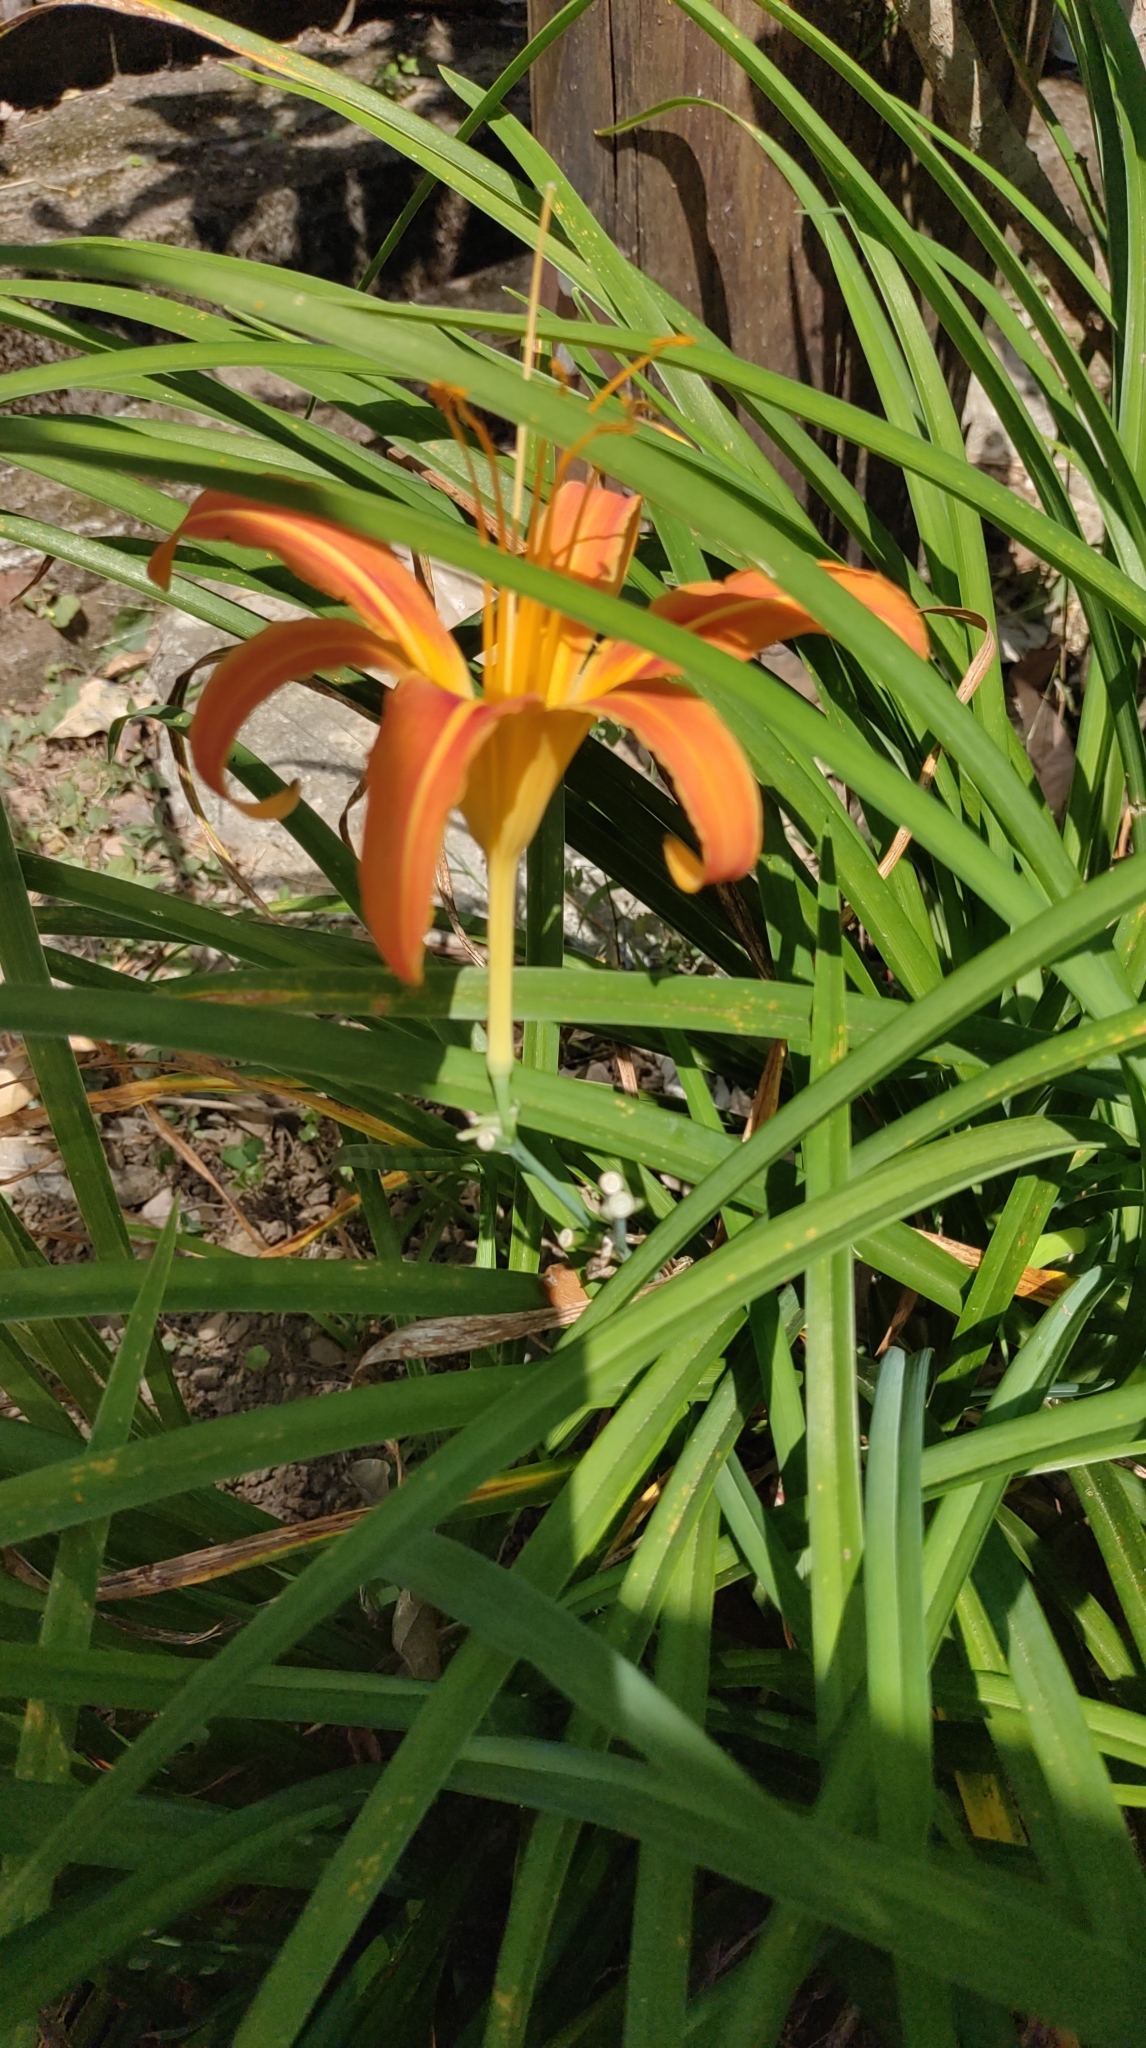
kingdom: Plantae
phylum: Tracheophyta
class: Liliopsida
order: Asparagales
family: Asphodelaceae
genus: Hemerocallis
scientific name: Hemerocallis fulva
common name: Orange day-lily
